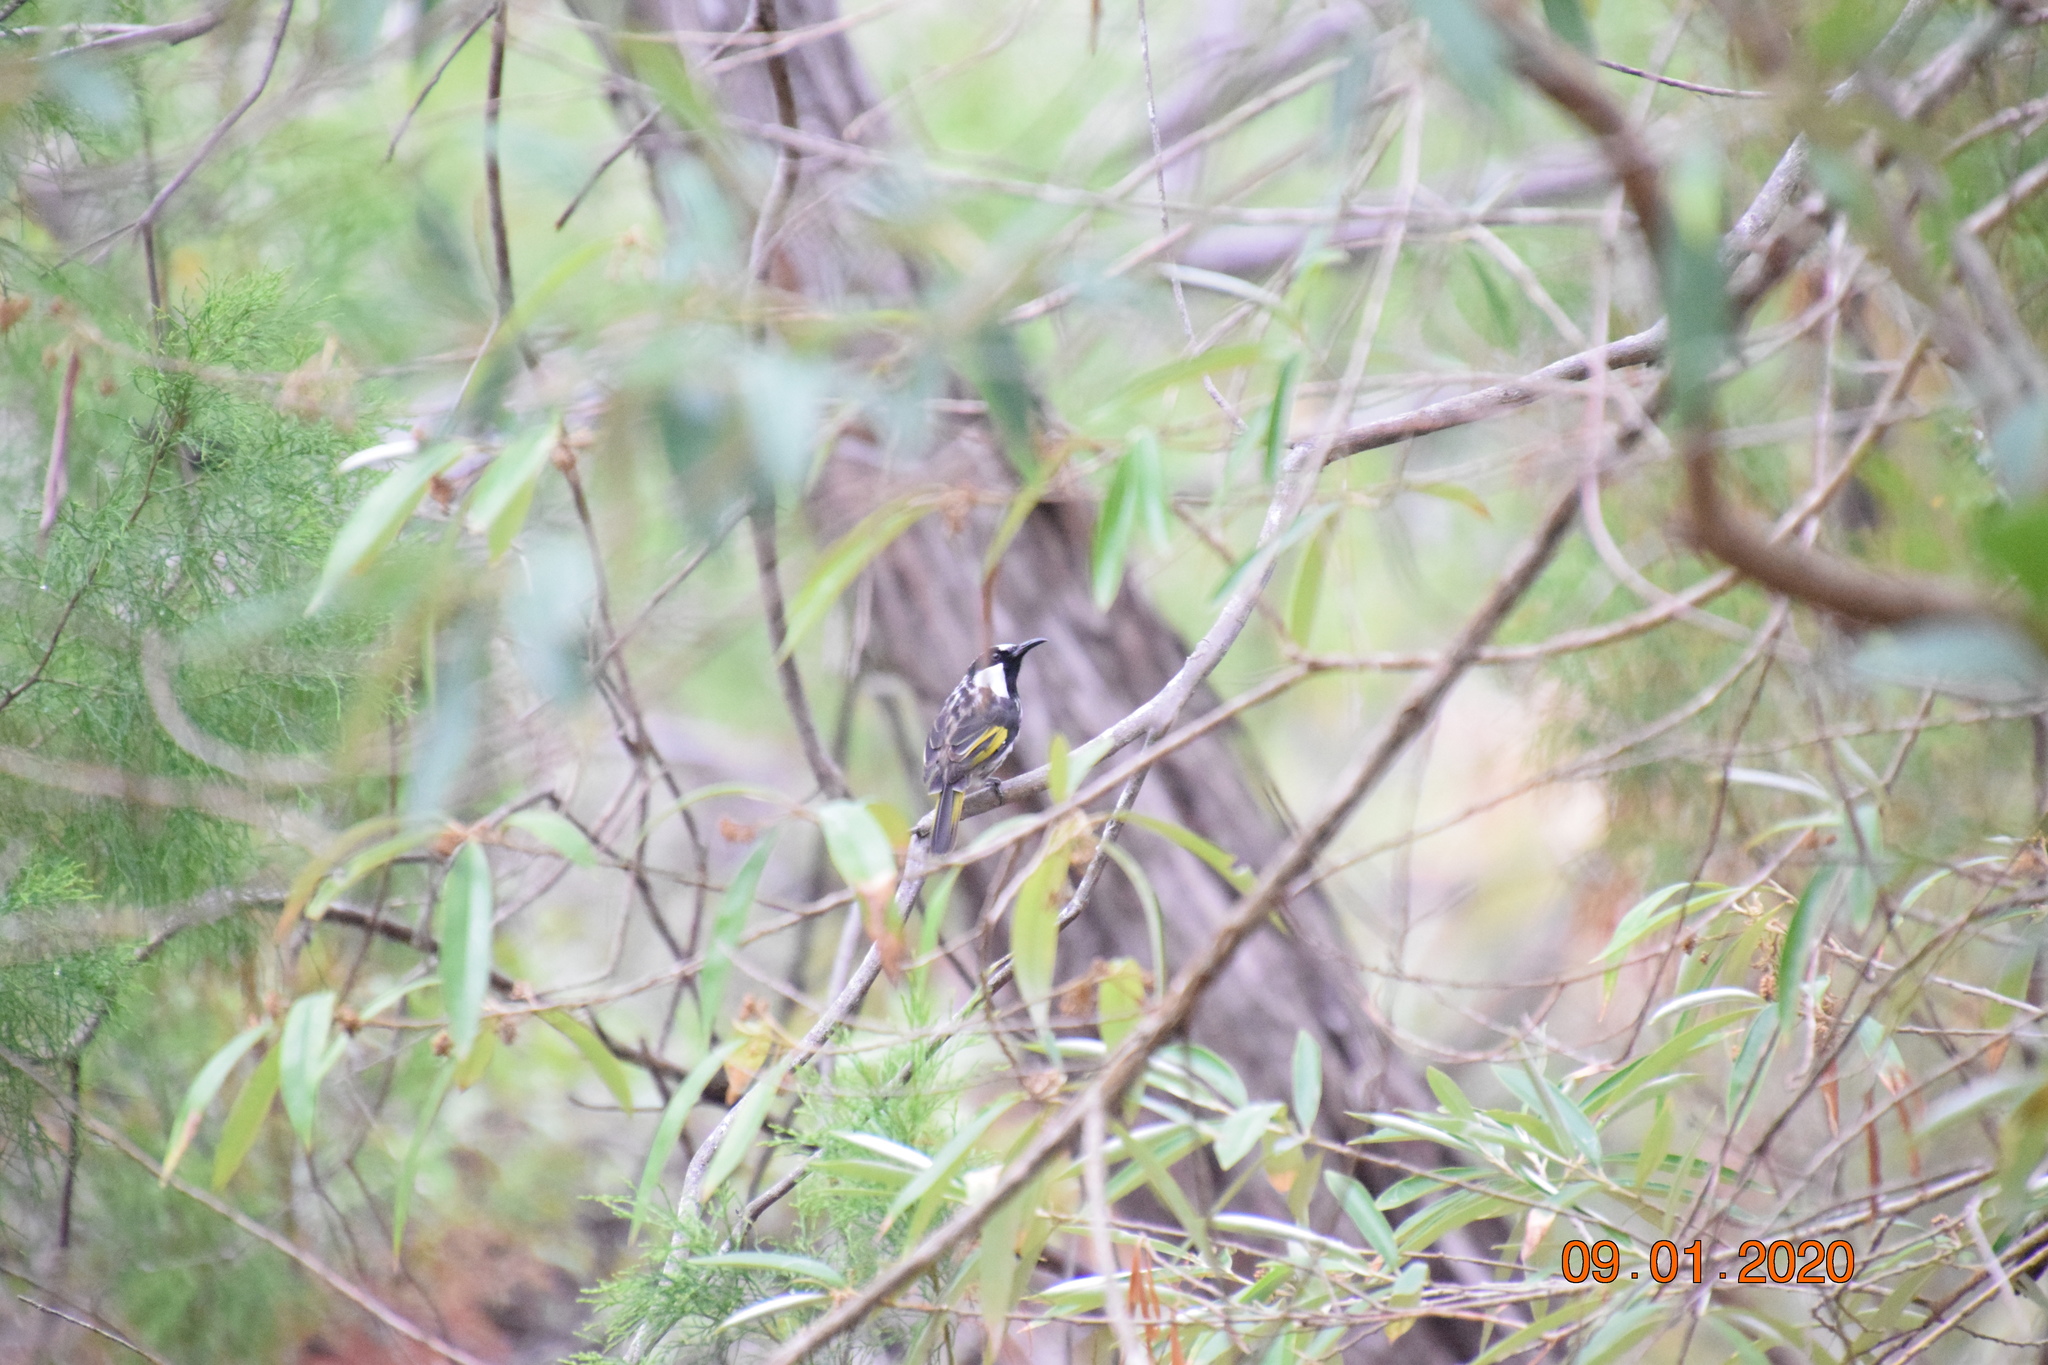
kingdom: Animalia
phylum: Chordata
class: Aves
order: Passeriformes
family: Meliphagidae
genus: Phylidonyris
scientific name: Phylidonyris niger
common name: White-cheeked honeyeater
